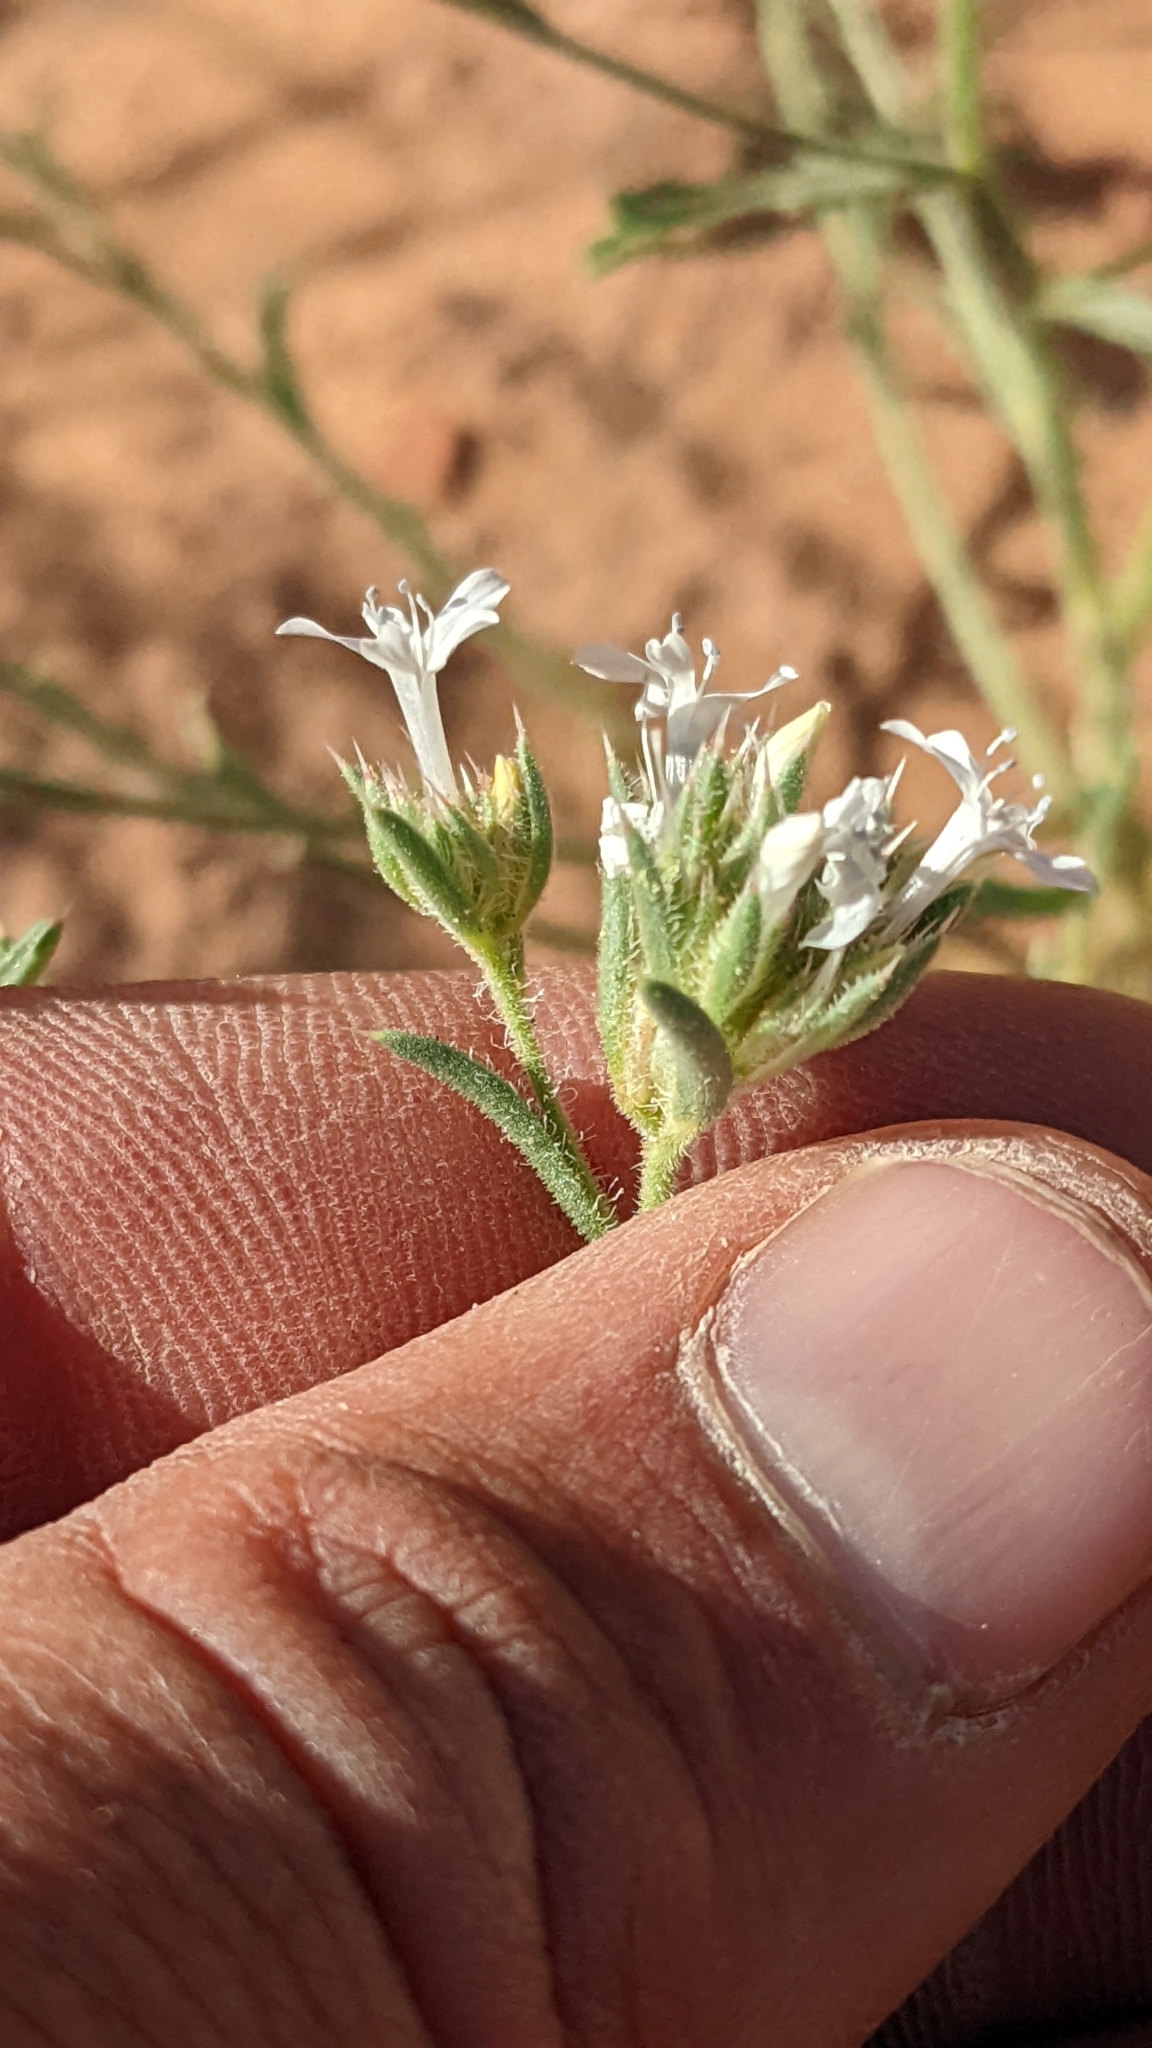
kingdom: Plantae
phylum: Tracheophyta
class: Magnoliopsida
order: Ericales
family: Polemoniaceae
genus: Ipomopsis
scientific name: Ipomopsis gunnisonii
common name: Sand-dune gilia
